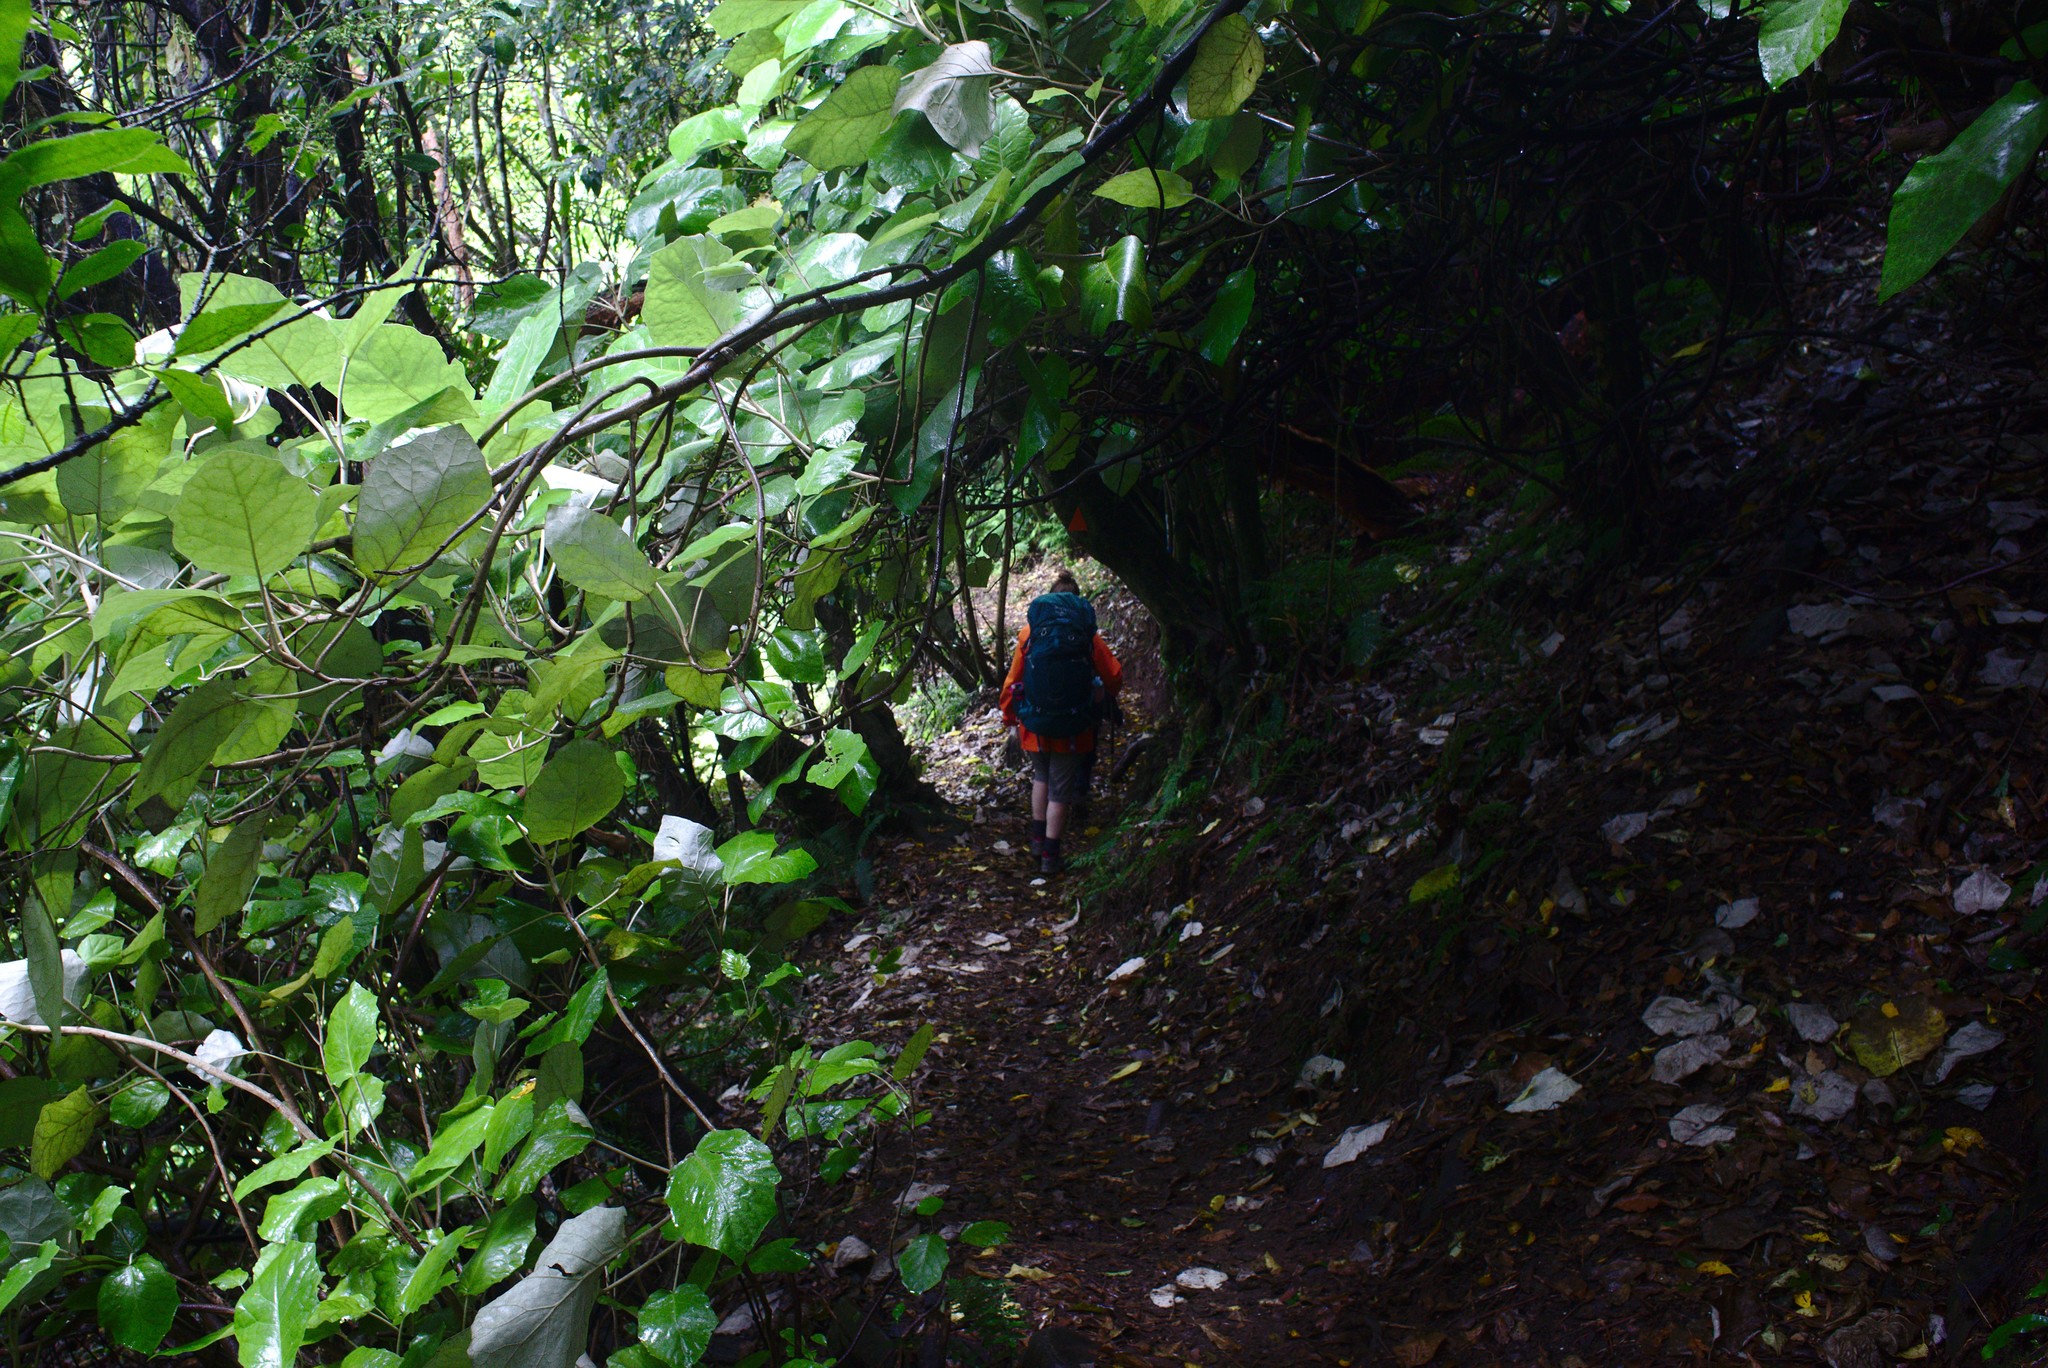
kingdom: Plantae
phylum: Tracheophyta
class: Magnoliopsida
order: Asterales
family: Asteraceae
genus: Brachyglottis
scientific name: Brachyglottis repanda
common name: Hedge ragwort
